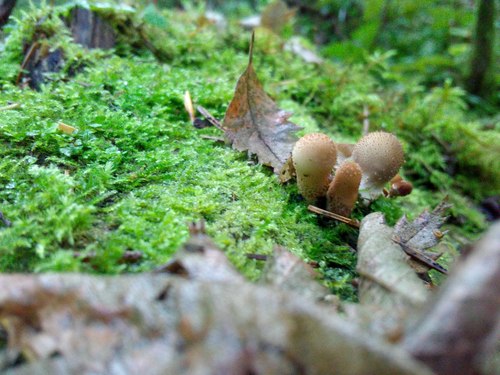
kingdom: Fungi
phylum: Basidiomycota
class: Agaricomycetes
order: Agaricales
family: Lycoperdaceae
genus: Apioperdon
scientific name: Apioperdon pyriforme
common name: Pear-shaped puffball
